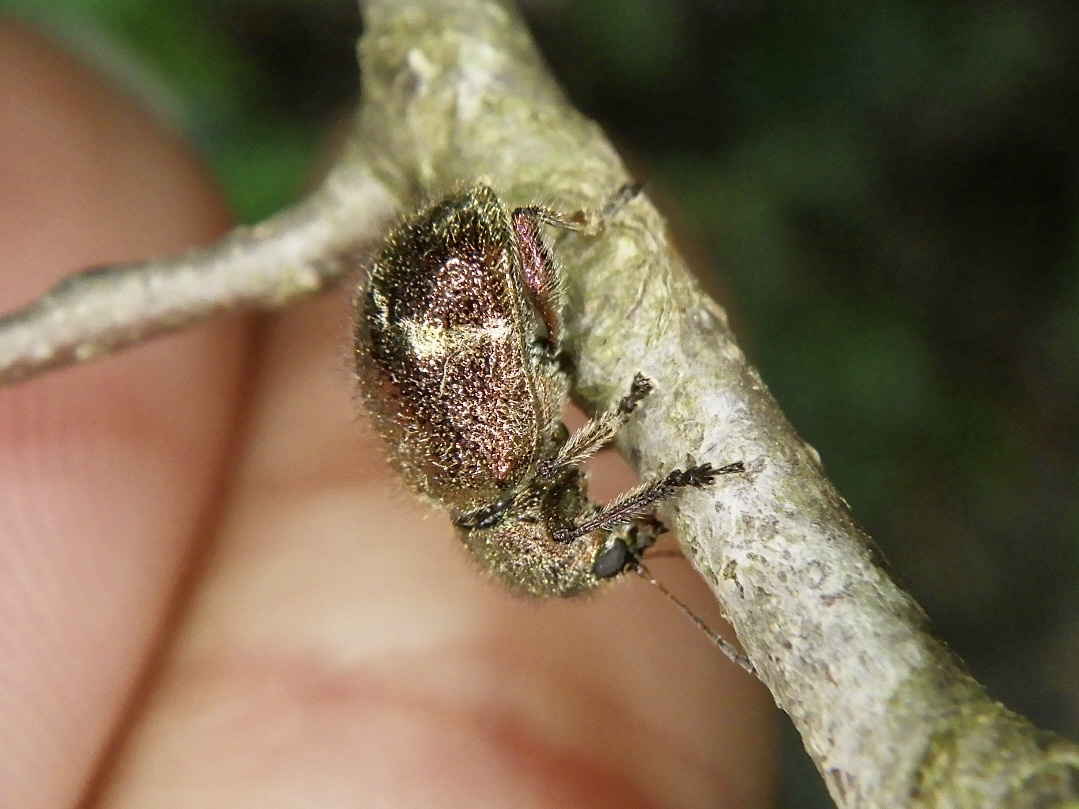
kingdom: Animalia
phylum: Arthropoda
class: Insecta
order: Coleoptera
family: Chrysomelidae
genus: Trichochrysea
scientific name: Trichochrysea
